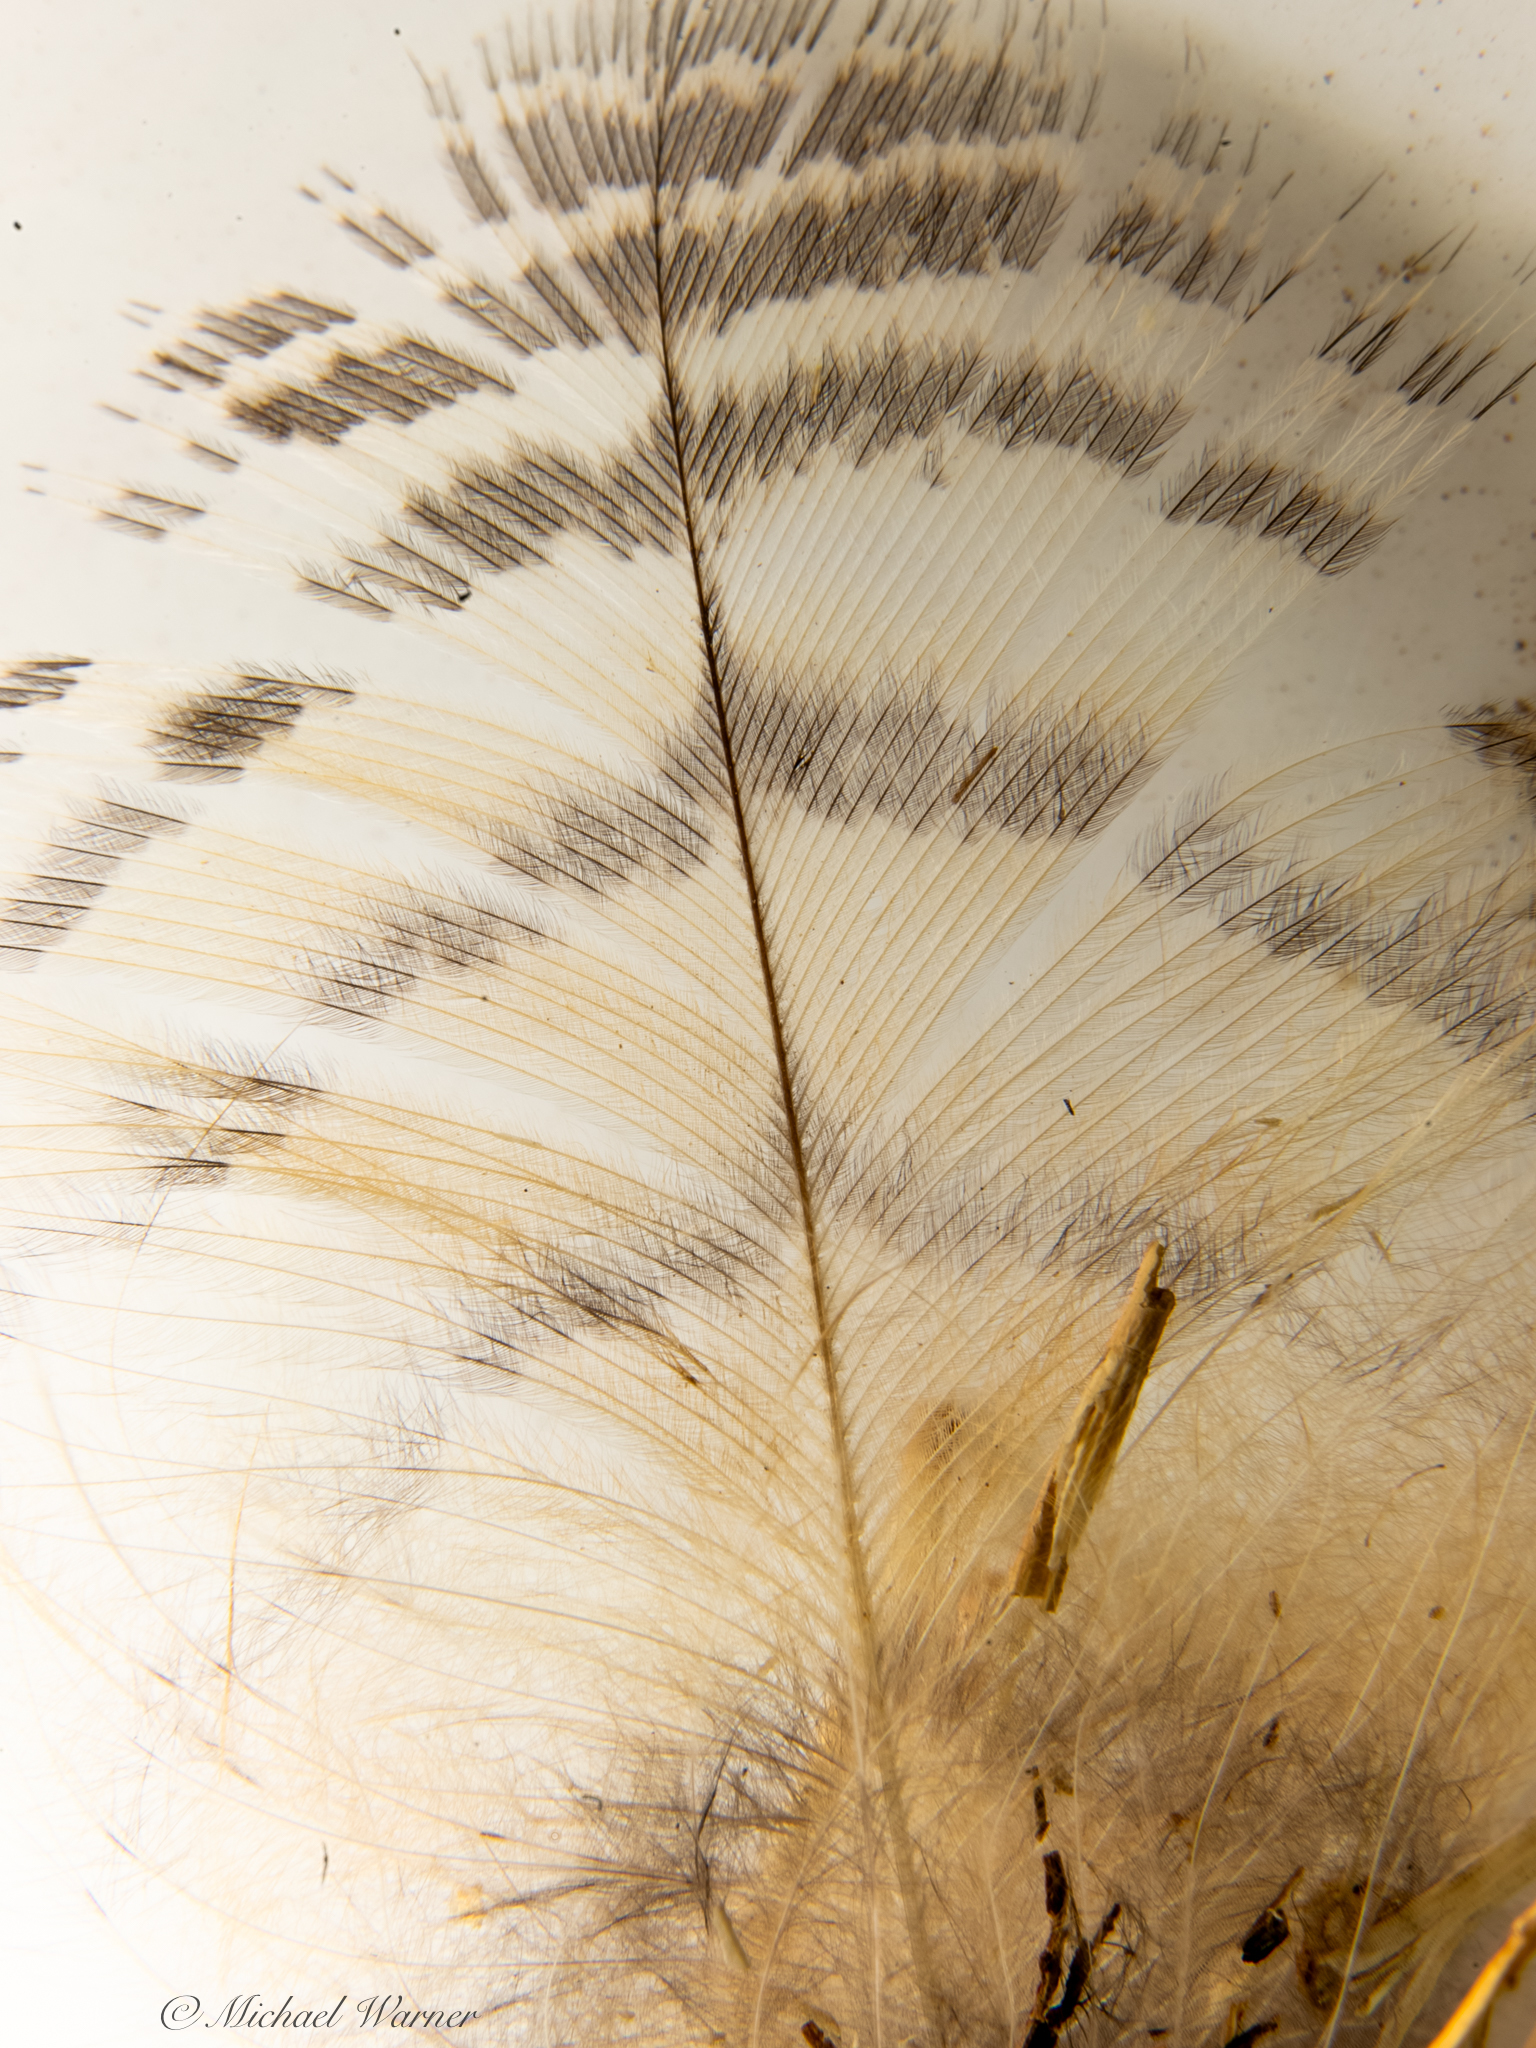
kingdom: Animalia
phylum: Chordata
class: Aves
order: Strigiformes
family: Strigidae
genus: Bubo
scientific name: Bubo virginianus
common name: Great horned owl
